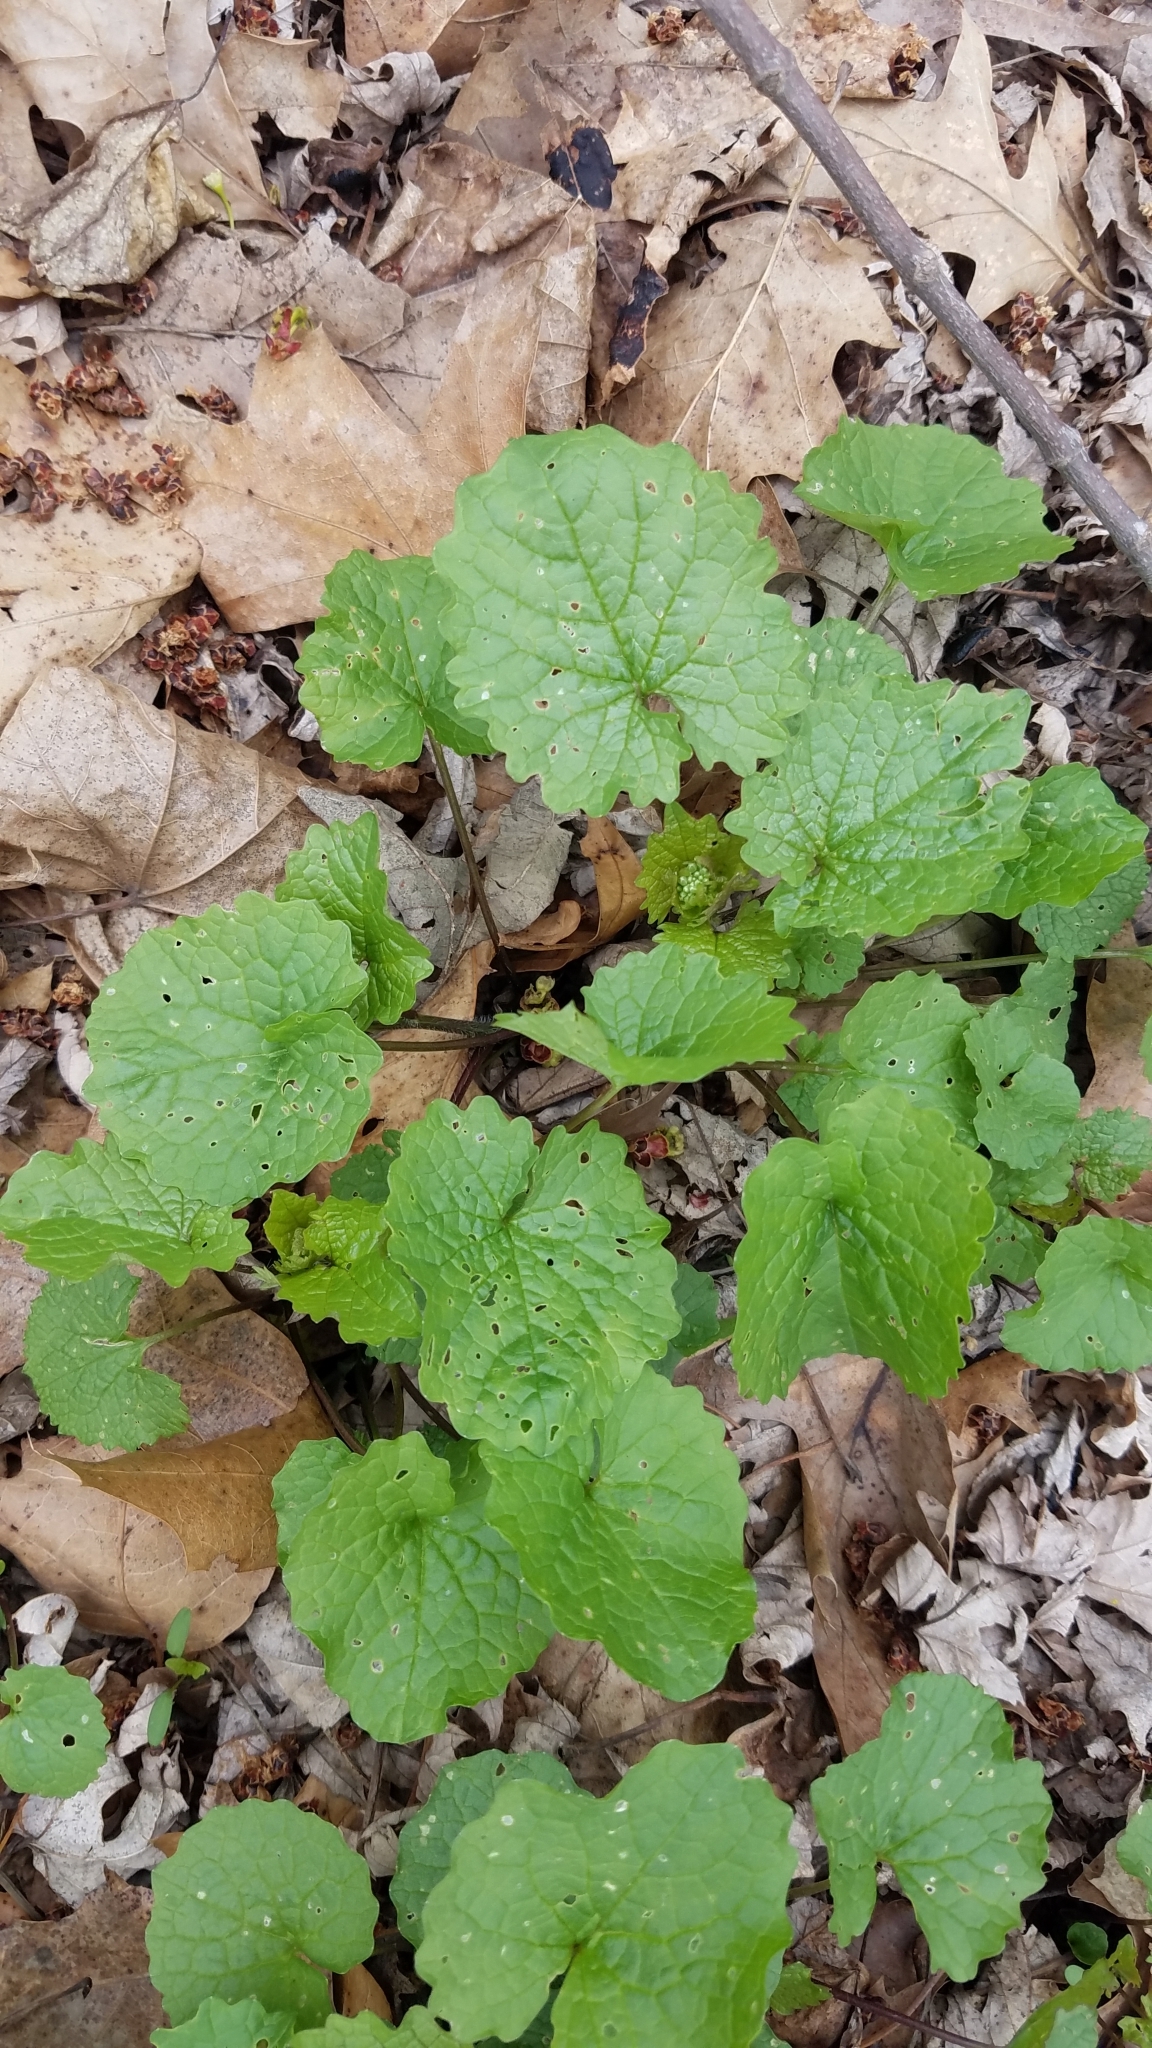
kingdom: Plantae
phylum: Tracheophyta
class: Magnoliopsida
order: Brassicales
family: Brassicaceae
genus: Alliaria
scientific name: Alliaria petiolata
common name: Garlic mustard
